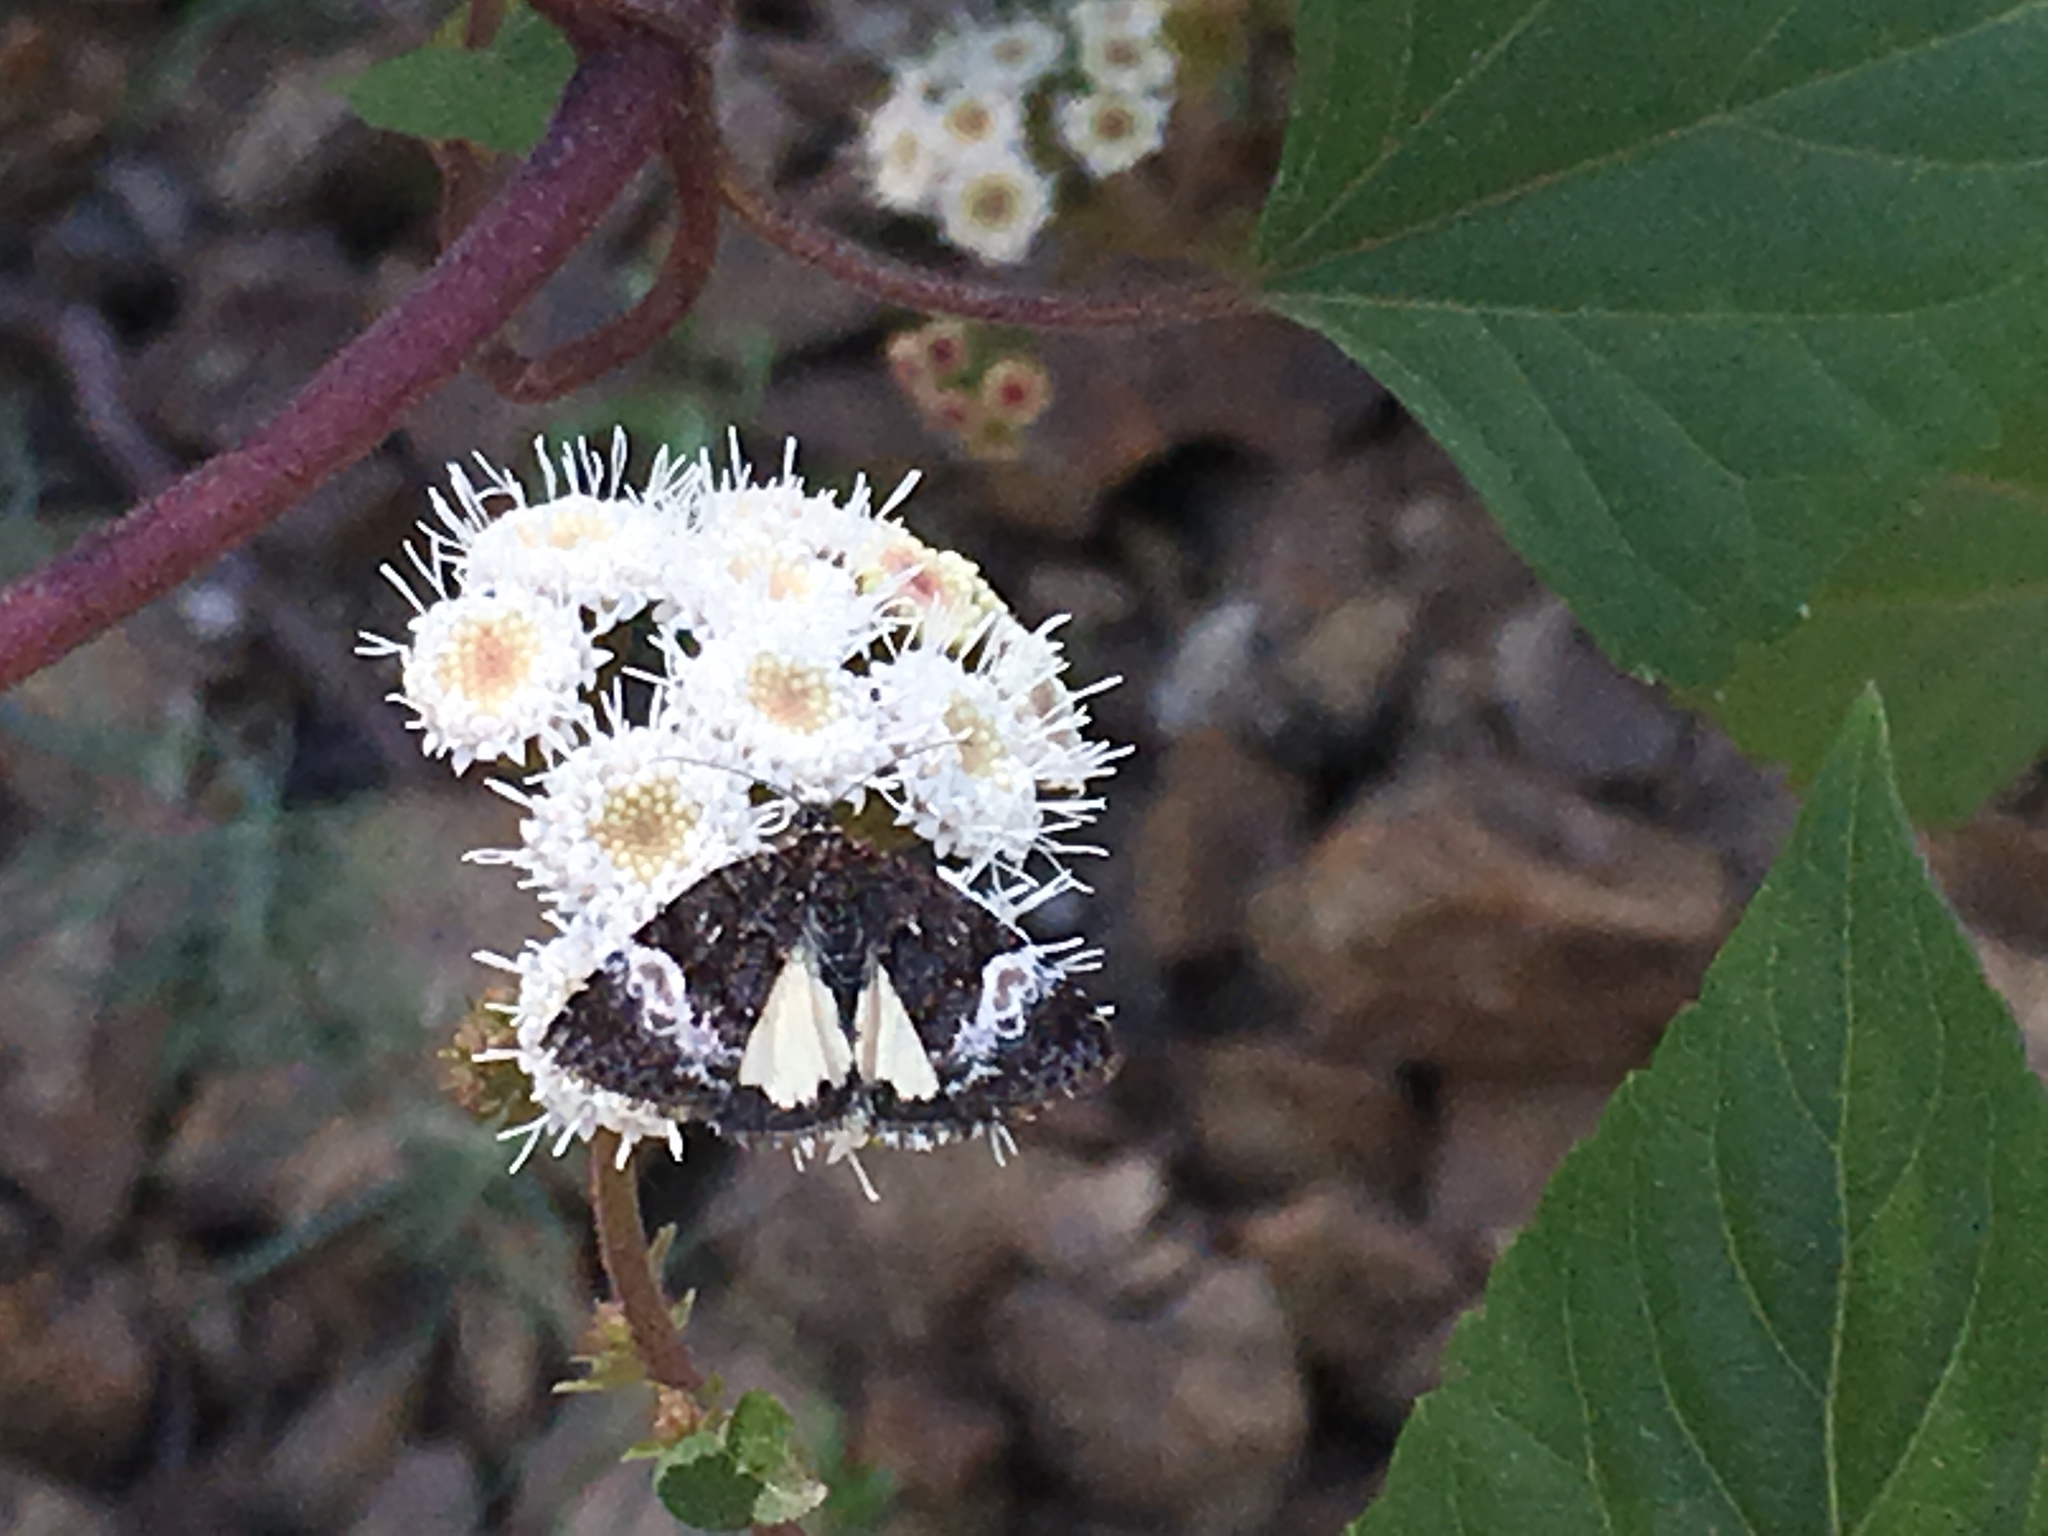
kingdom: Animalia
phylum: Arthropoda
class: Insecta
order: Lepidoptera
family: Noctuidae
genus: Annaphila
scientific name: Annaphila diva
